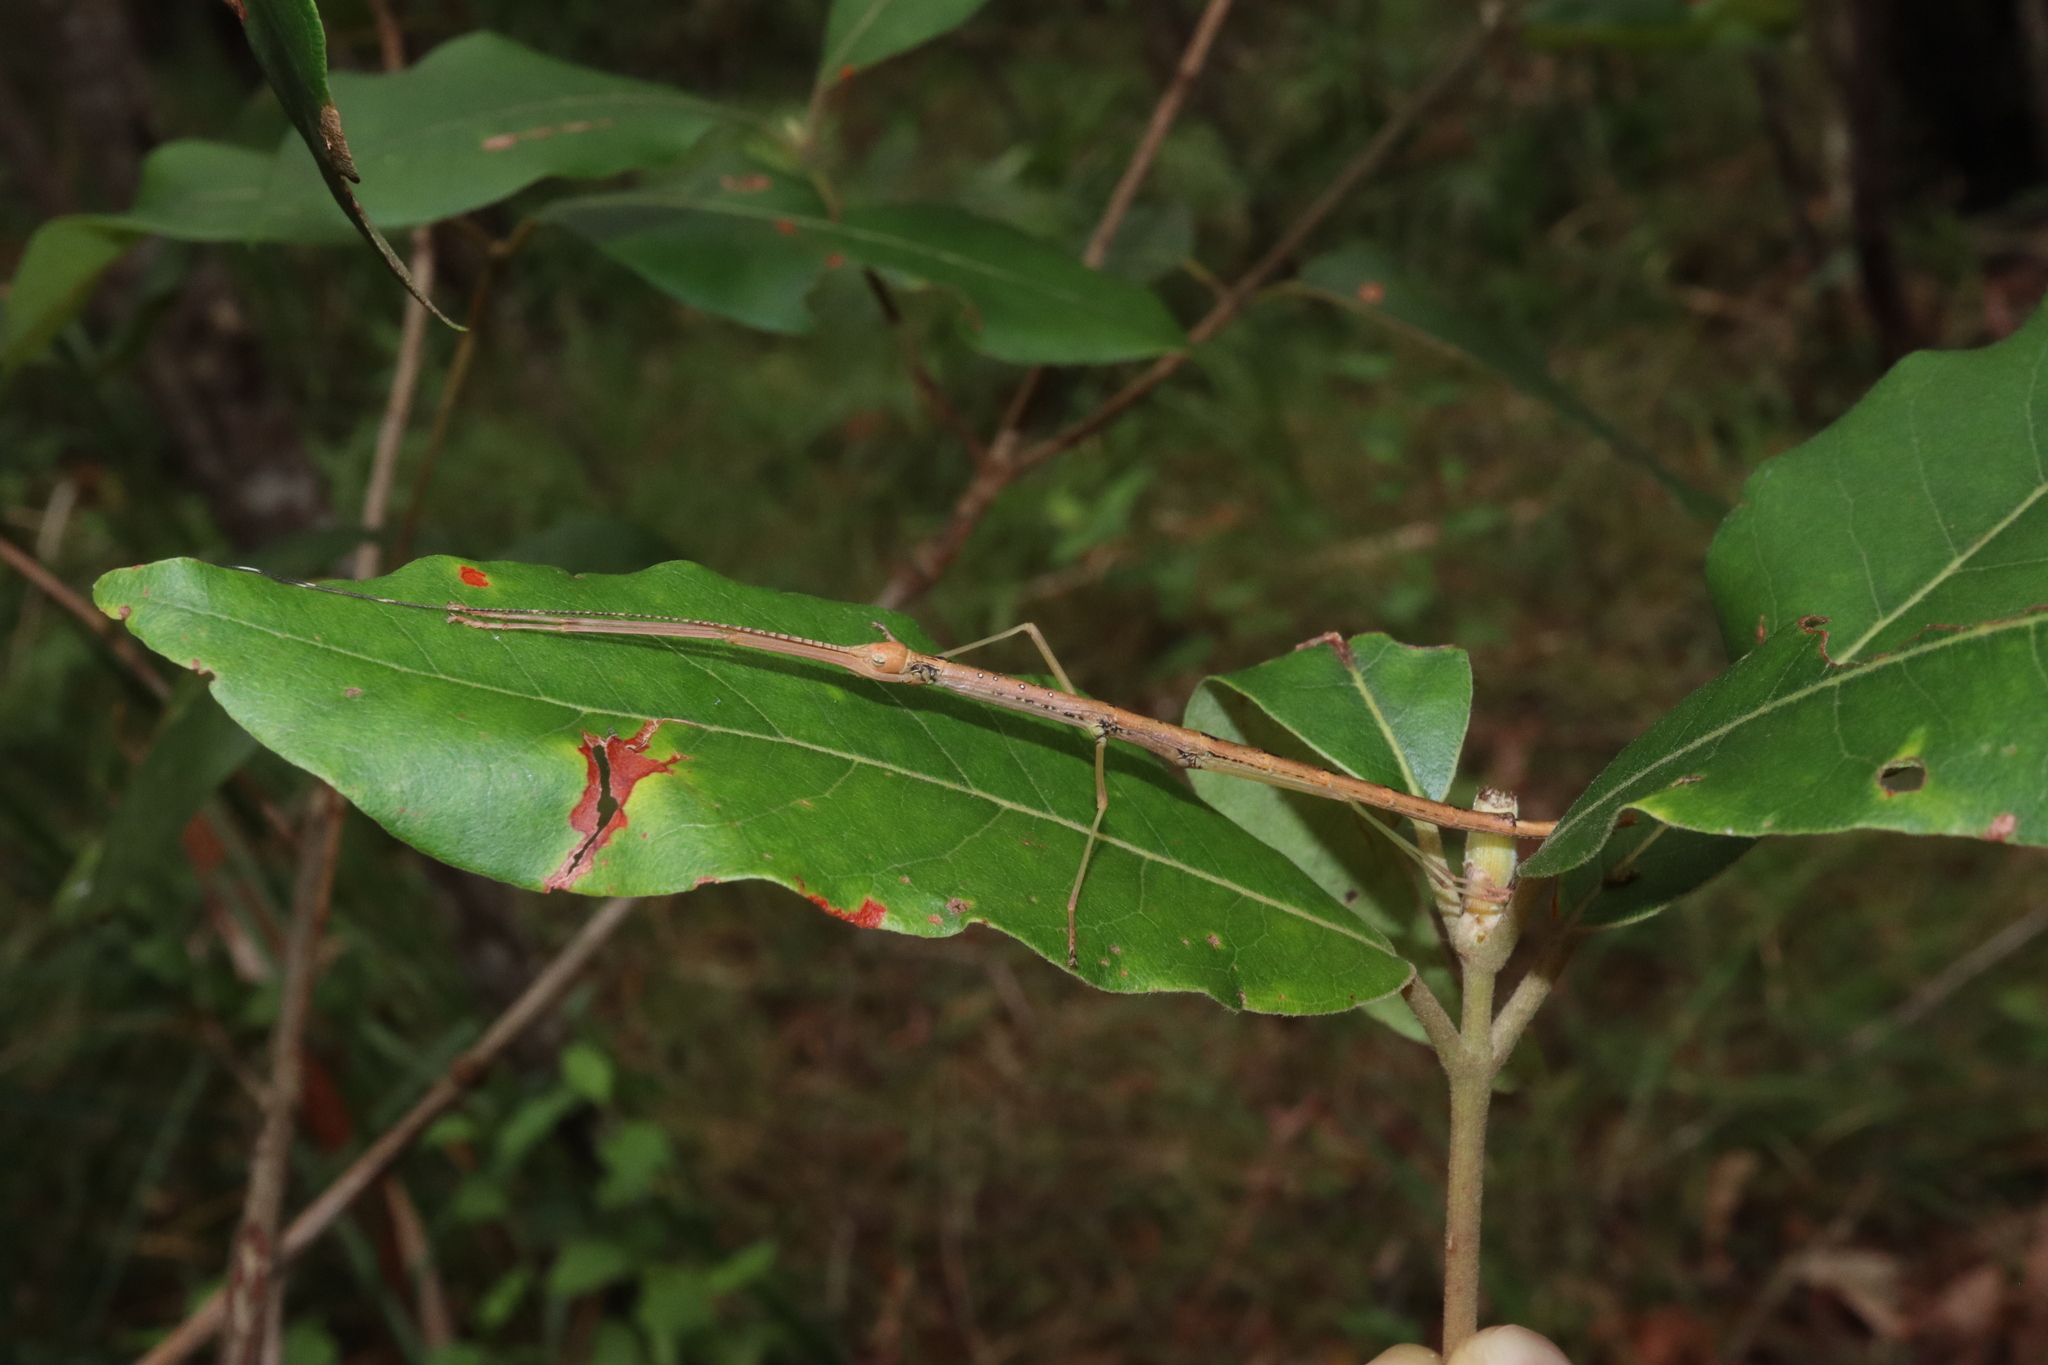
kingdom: Animalia
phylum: Arthropoda
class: Insecta
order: Phasmida
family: Lonchodidae
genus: Candovia
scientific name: Candovia strumosa
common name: Richmond river stick-insect
